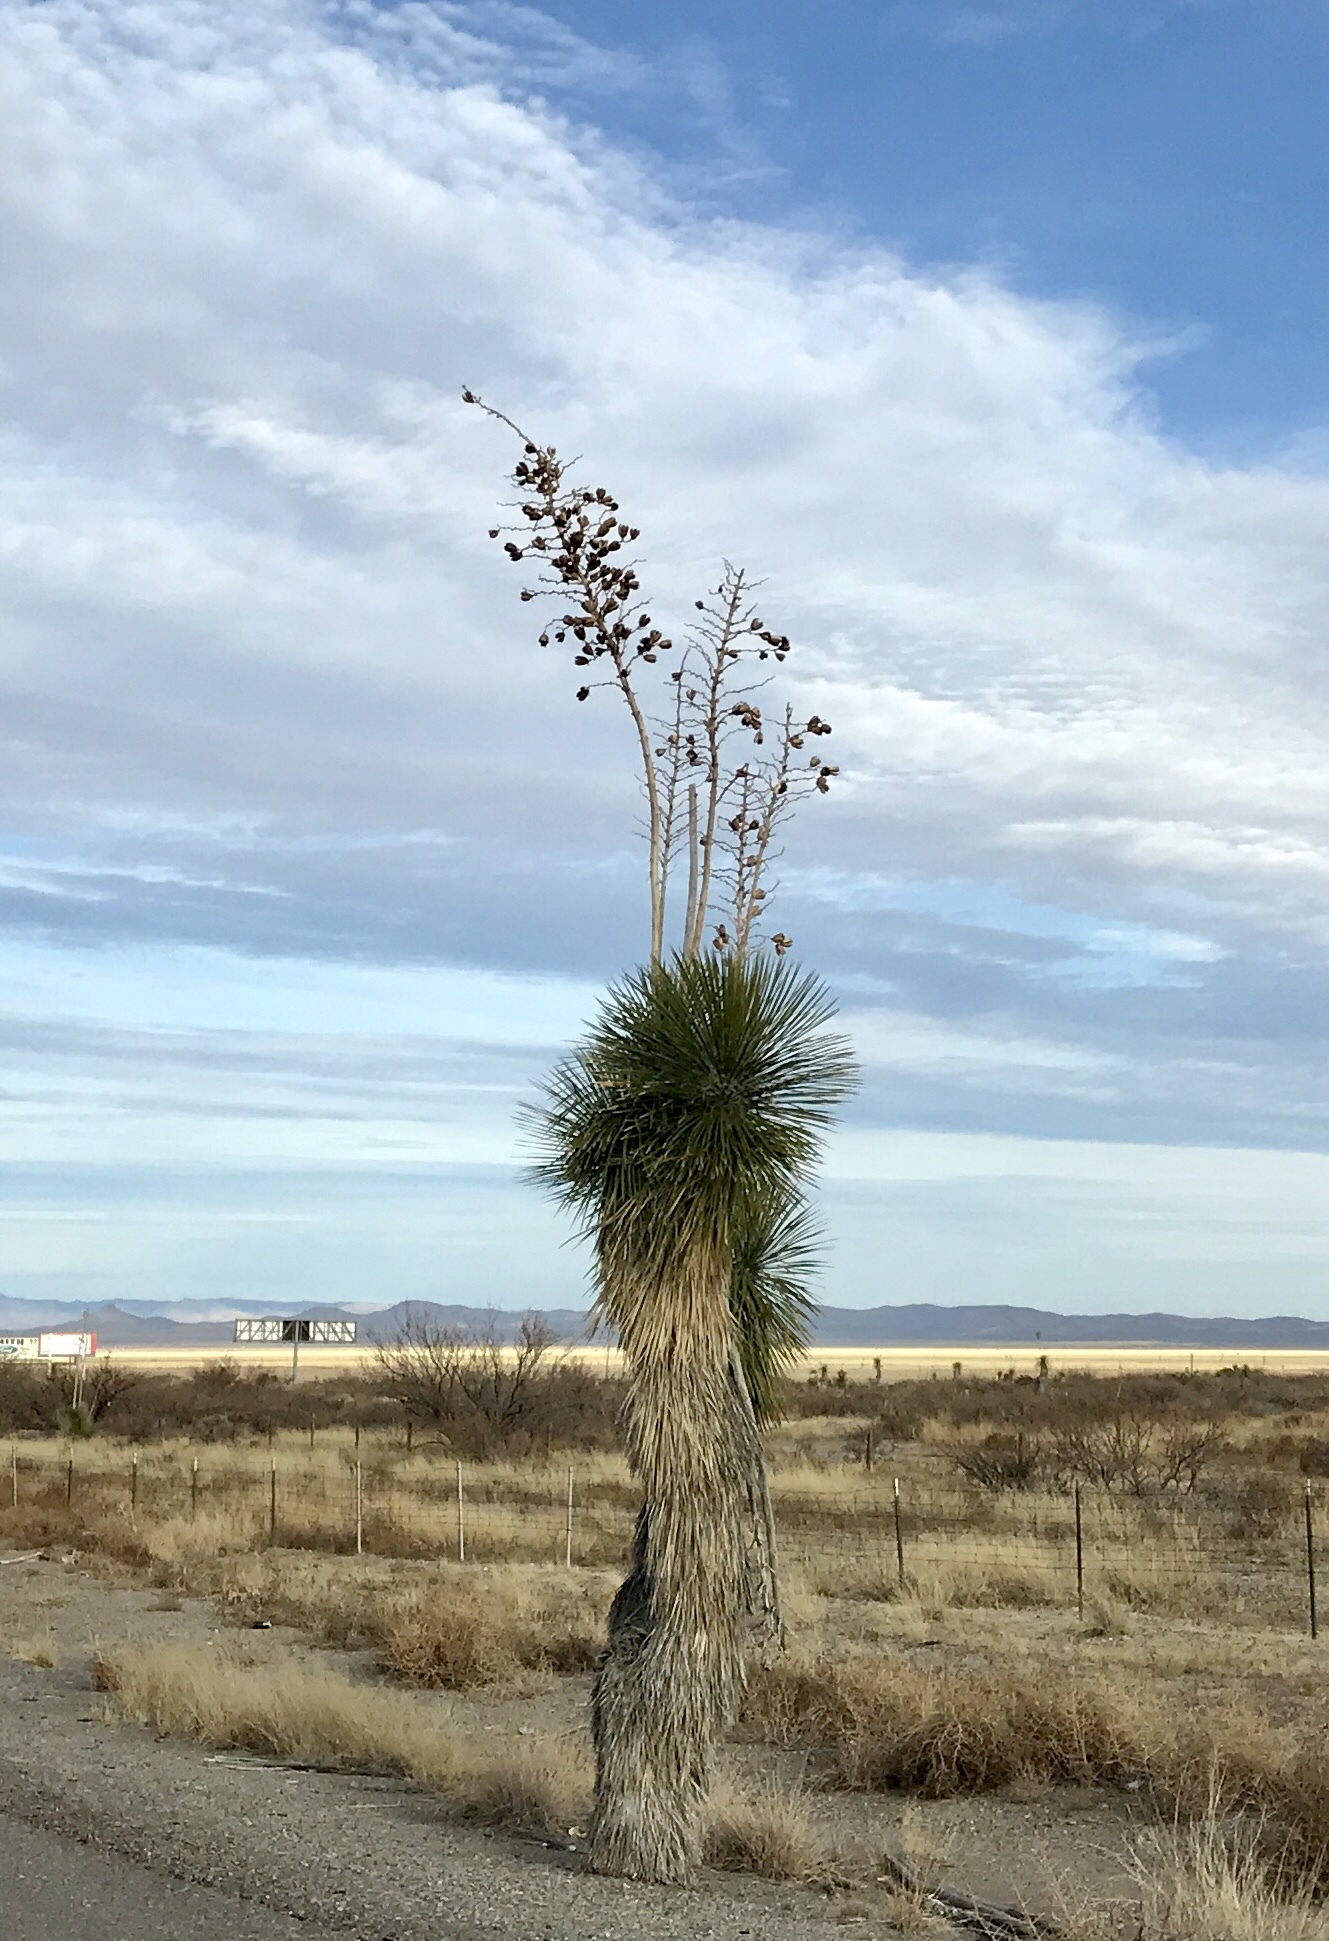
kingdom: Plantae
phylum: Tracheophyta
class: Liliopsida
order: Asparagales
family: Asparagaceae
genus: Yucca
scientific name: Yucca elata
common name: Palmella
